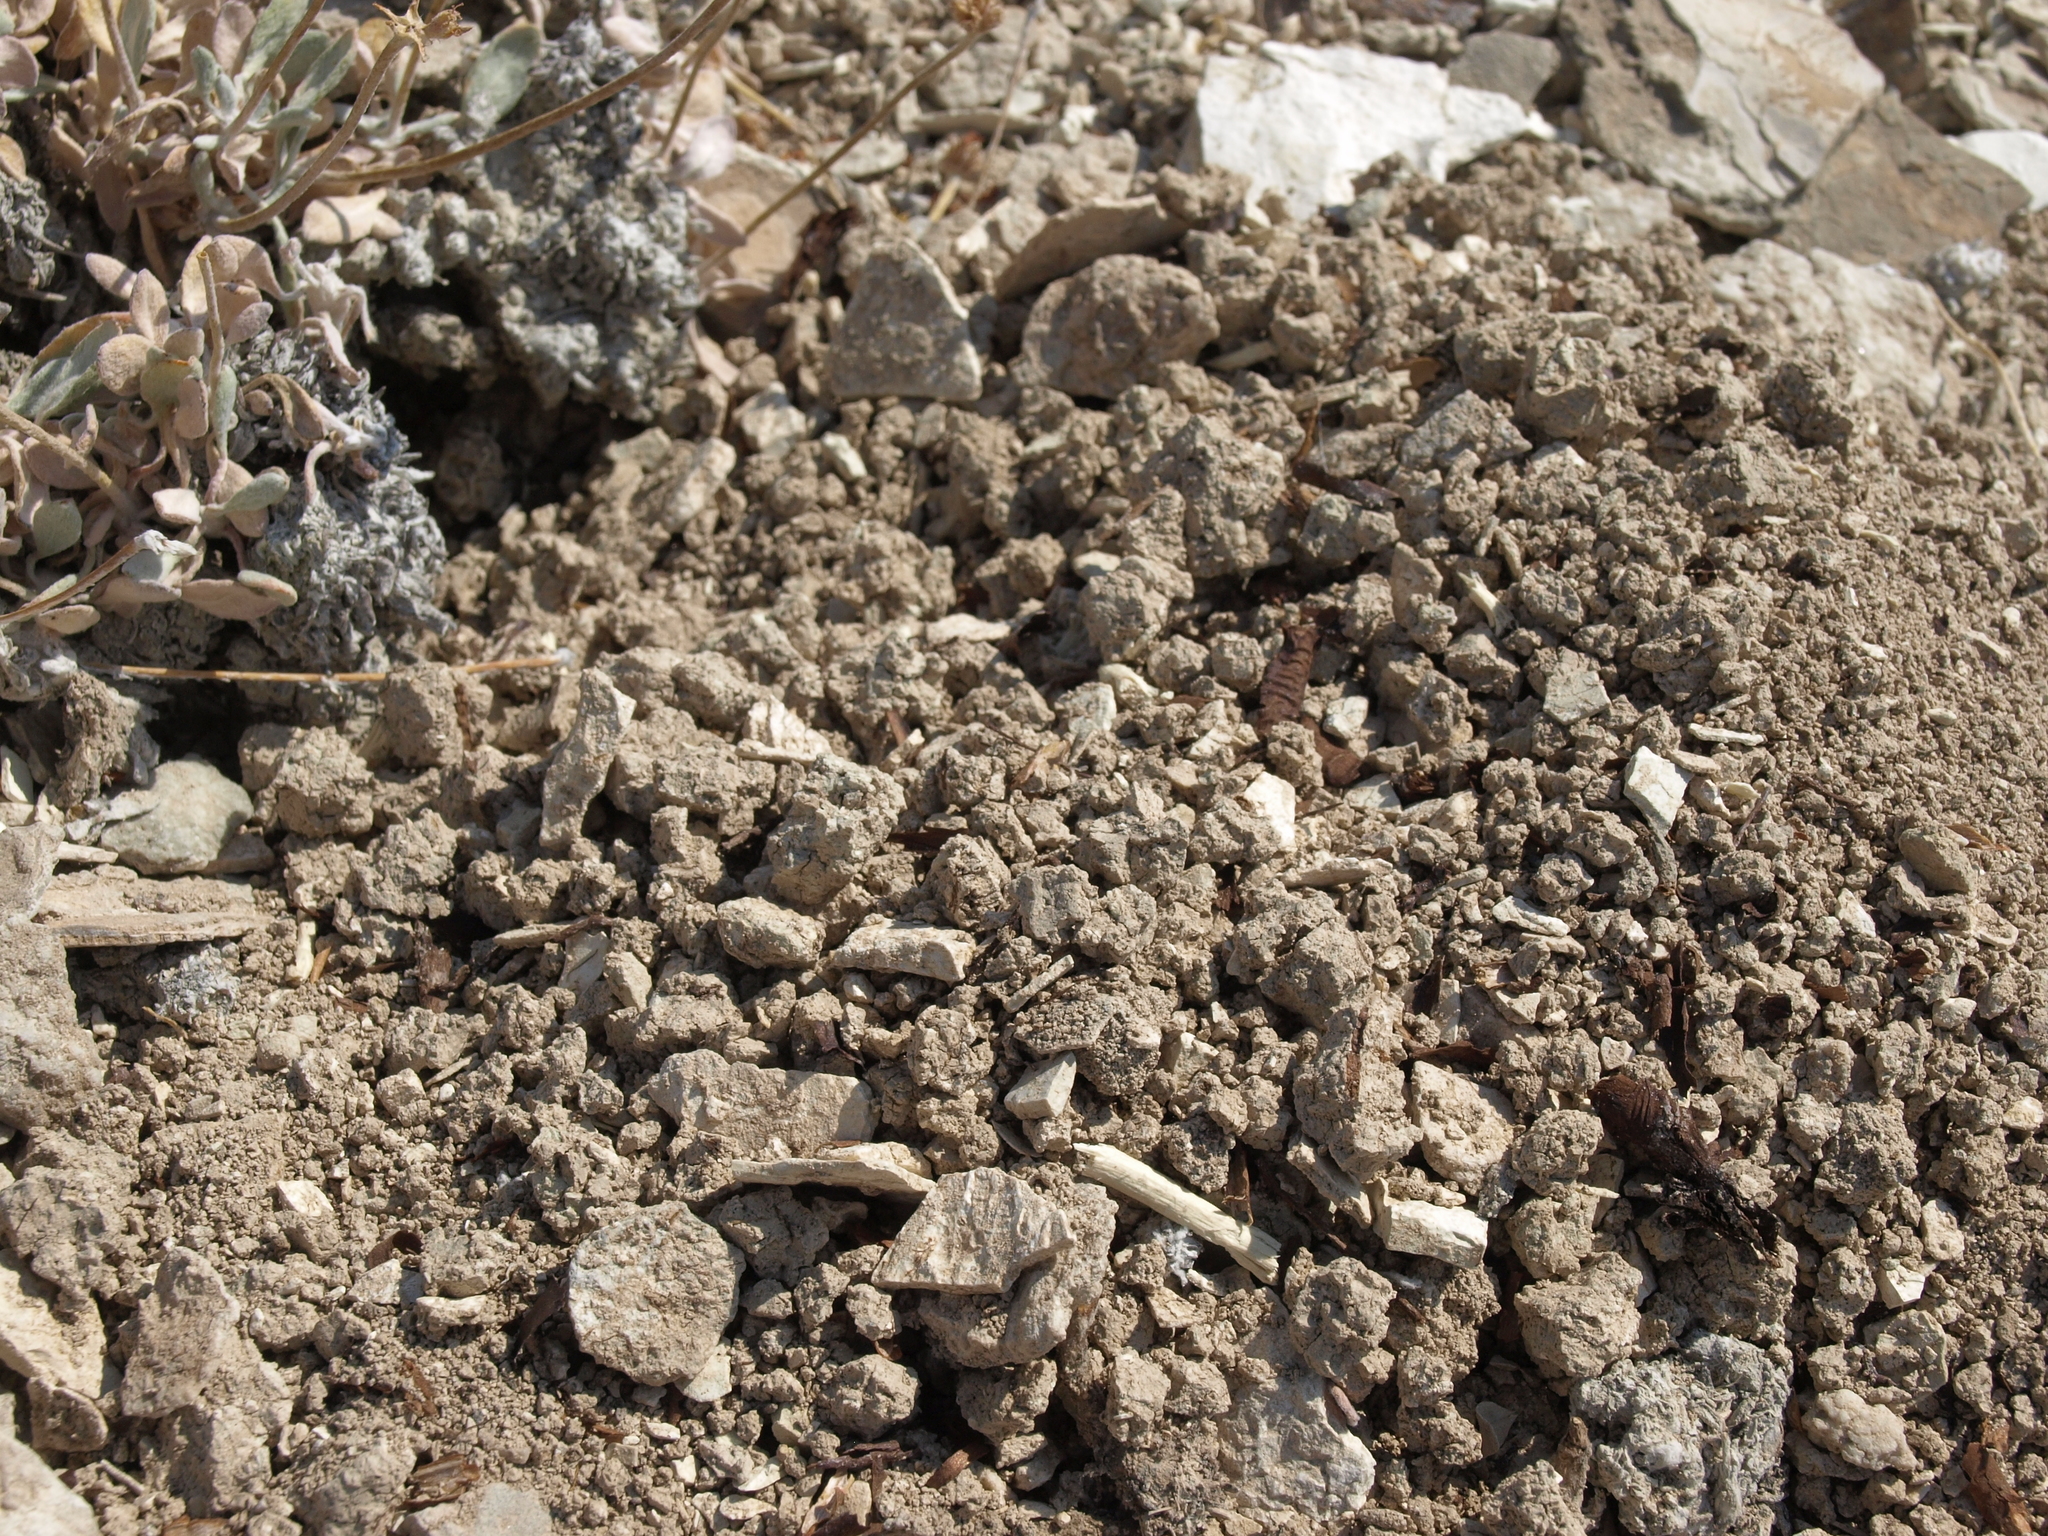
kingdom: Plantae
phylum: Tracheophyta
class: Magnoliopsida
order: Caryophyllales
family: Polygonaceae
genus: Eriogonum
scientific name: Eriogonum tiehmii
